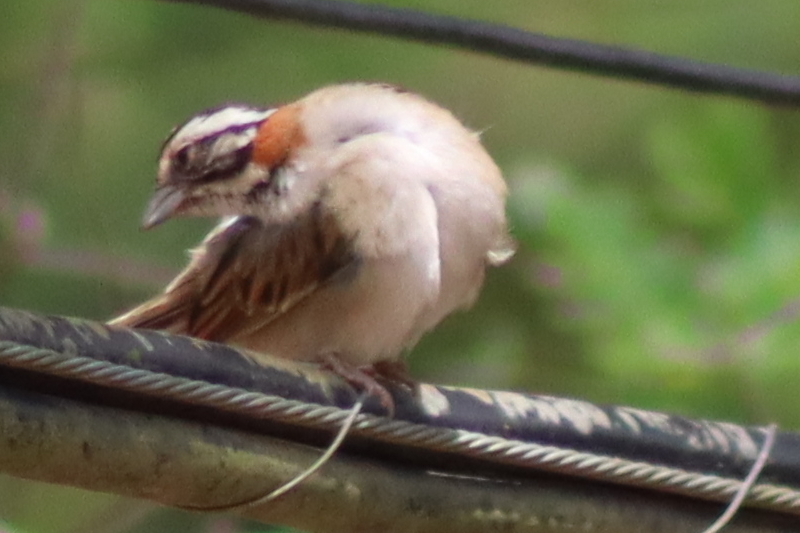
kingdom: Animalia
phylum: Chordata
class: Aves
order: Passeriformes
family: Passerellidae
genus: Zonotrichia
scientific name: Zonotrichia capensis
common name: Rufous-collared sparrow
